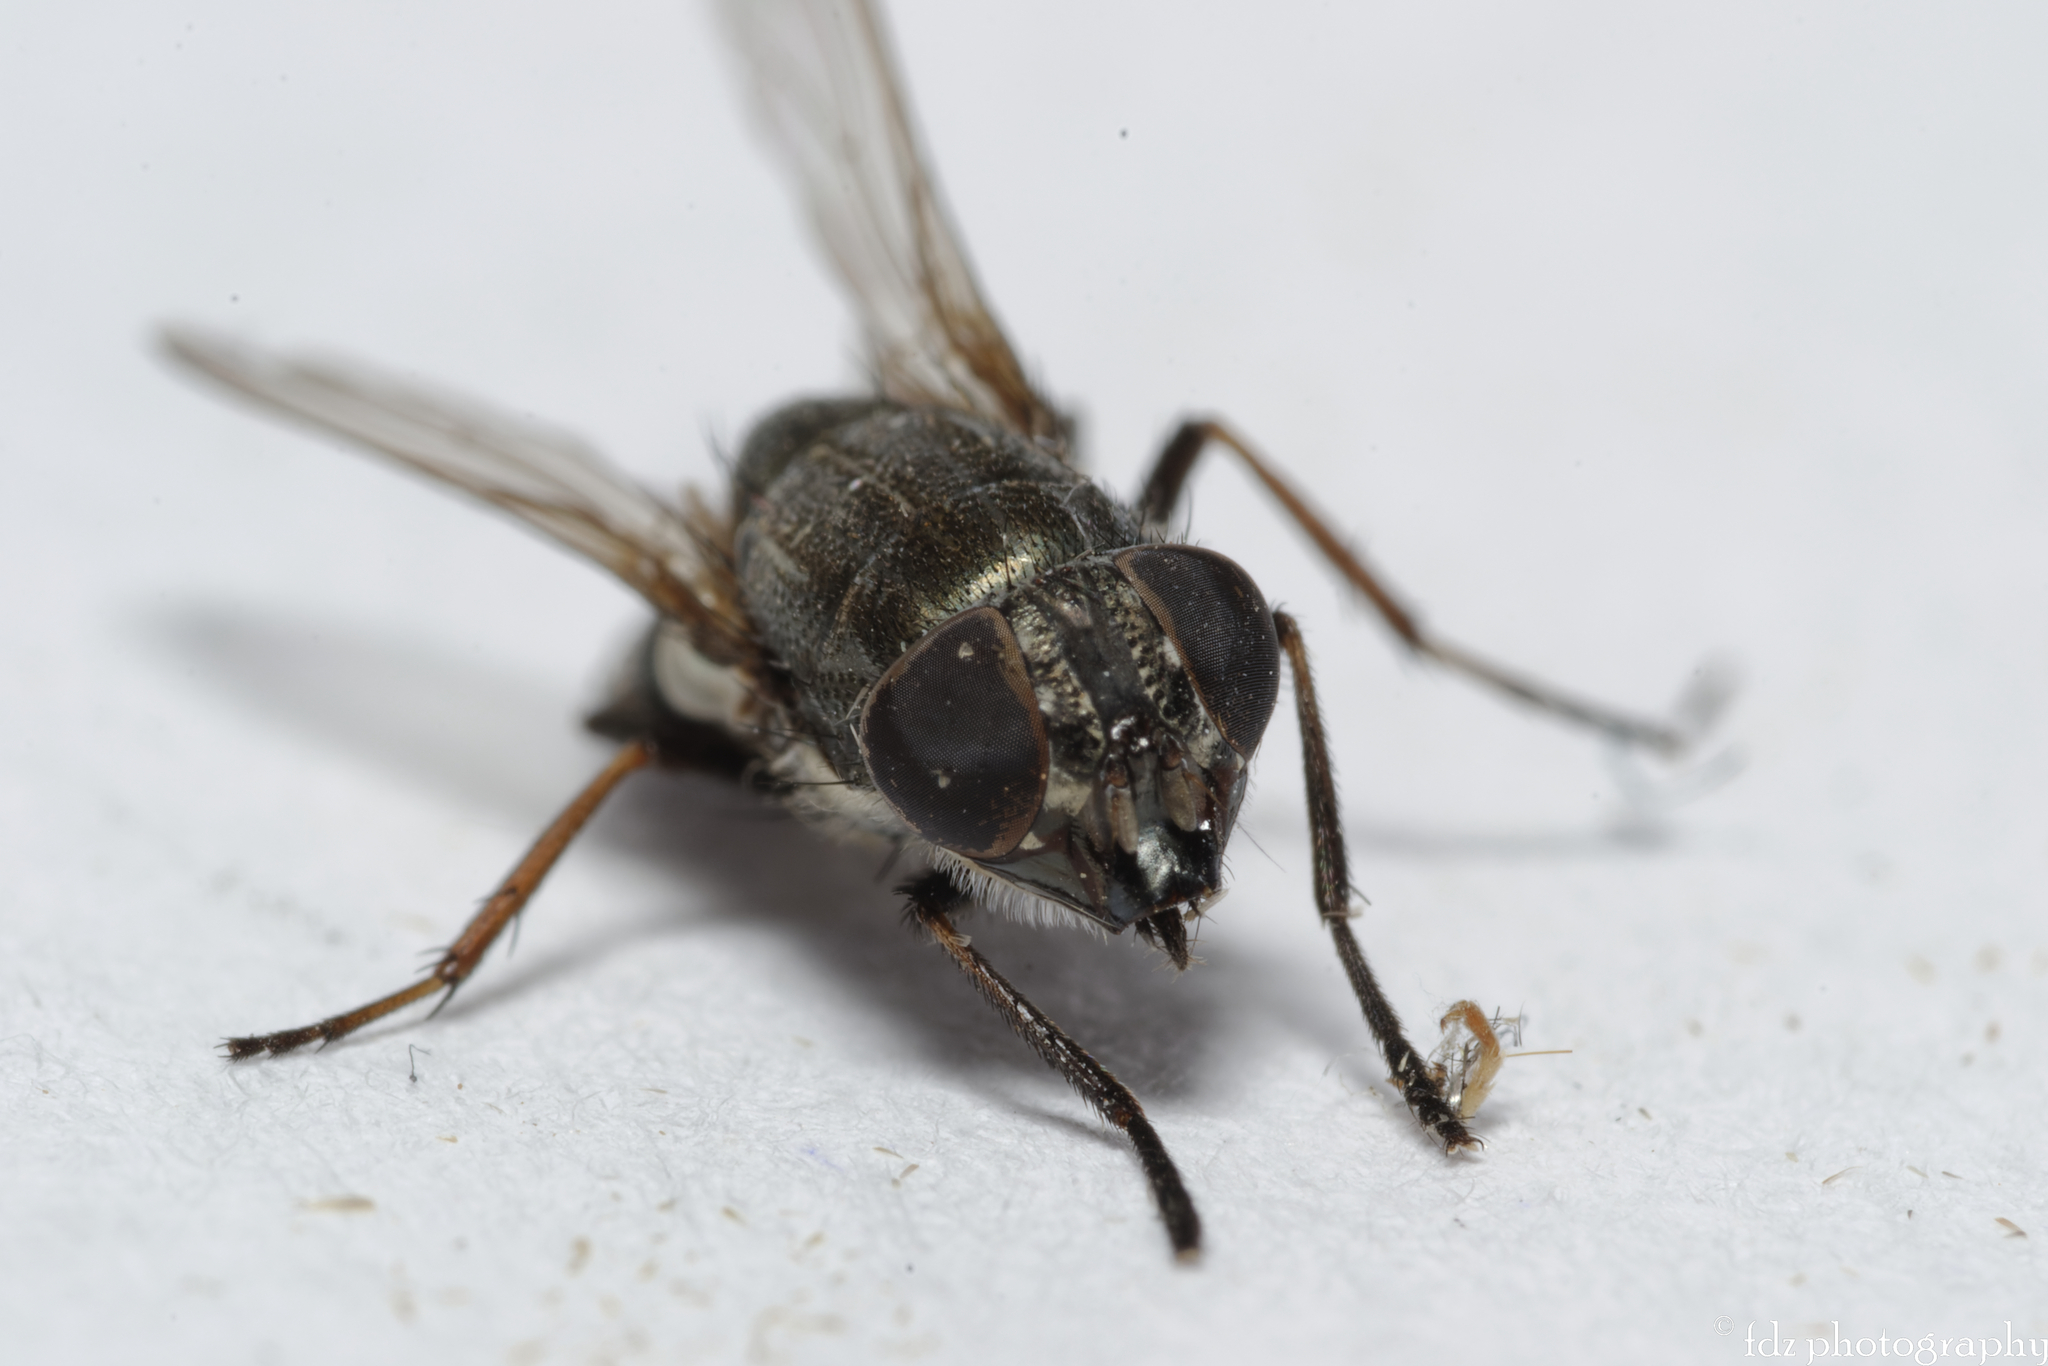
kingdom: Animalia
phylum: Arthropoda
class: Insecta
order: Diptera
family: Calliphoridae
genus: Stomorhina
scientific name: Stomorhina lunata
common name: Locust blowfly
